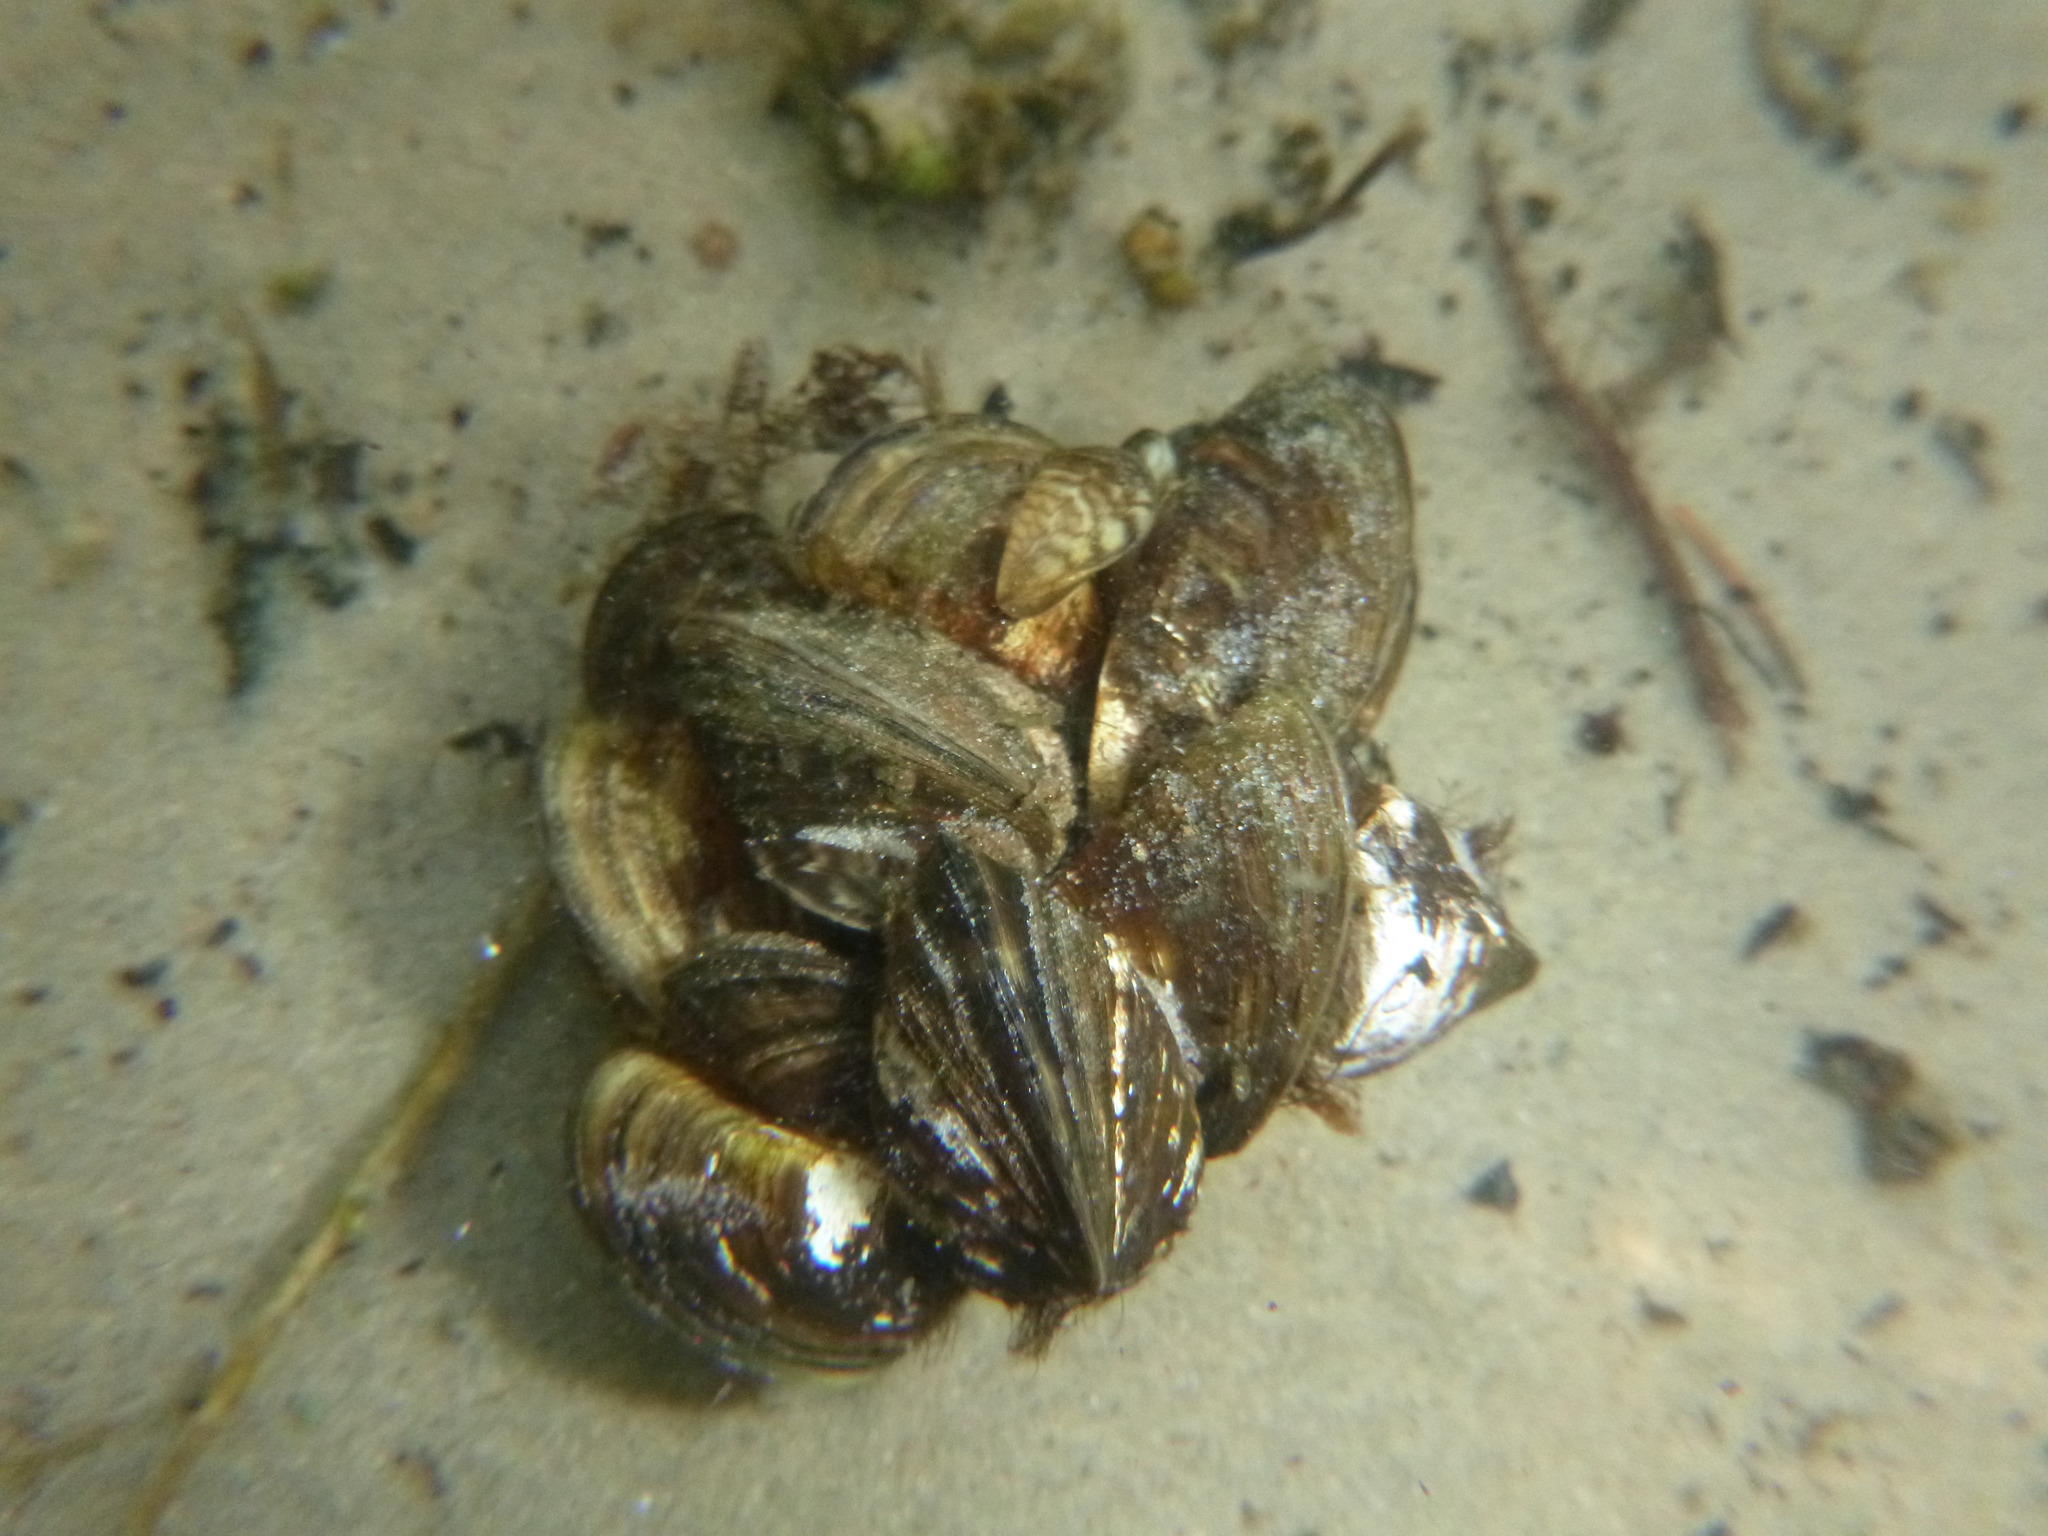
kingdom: Animalia
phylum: Mollusca
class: Bivalvia
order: Myida
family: Dreissenidae
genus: Dreissena
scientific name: Dreissena polymorpha
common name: Zebra mussel
